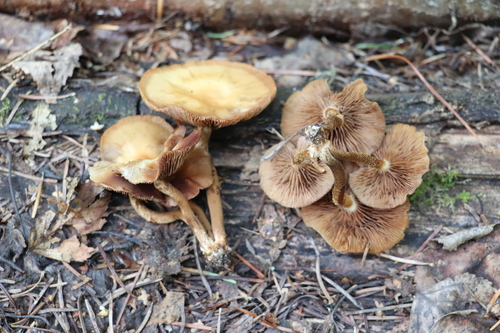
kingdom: Fungi
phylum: Basidiomycota
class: Agaricomycetes
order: Agaricales
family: Strophariaceae
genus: Kuehneromyces
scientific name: Kuehneromyces mutabilis
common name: Sheathed woodtuft
